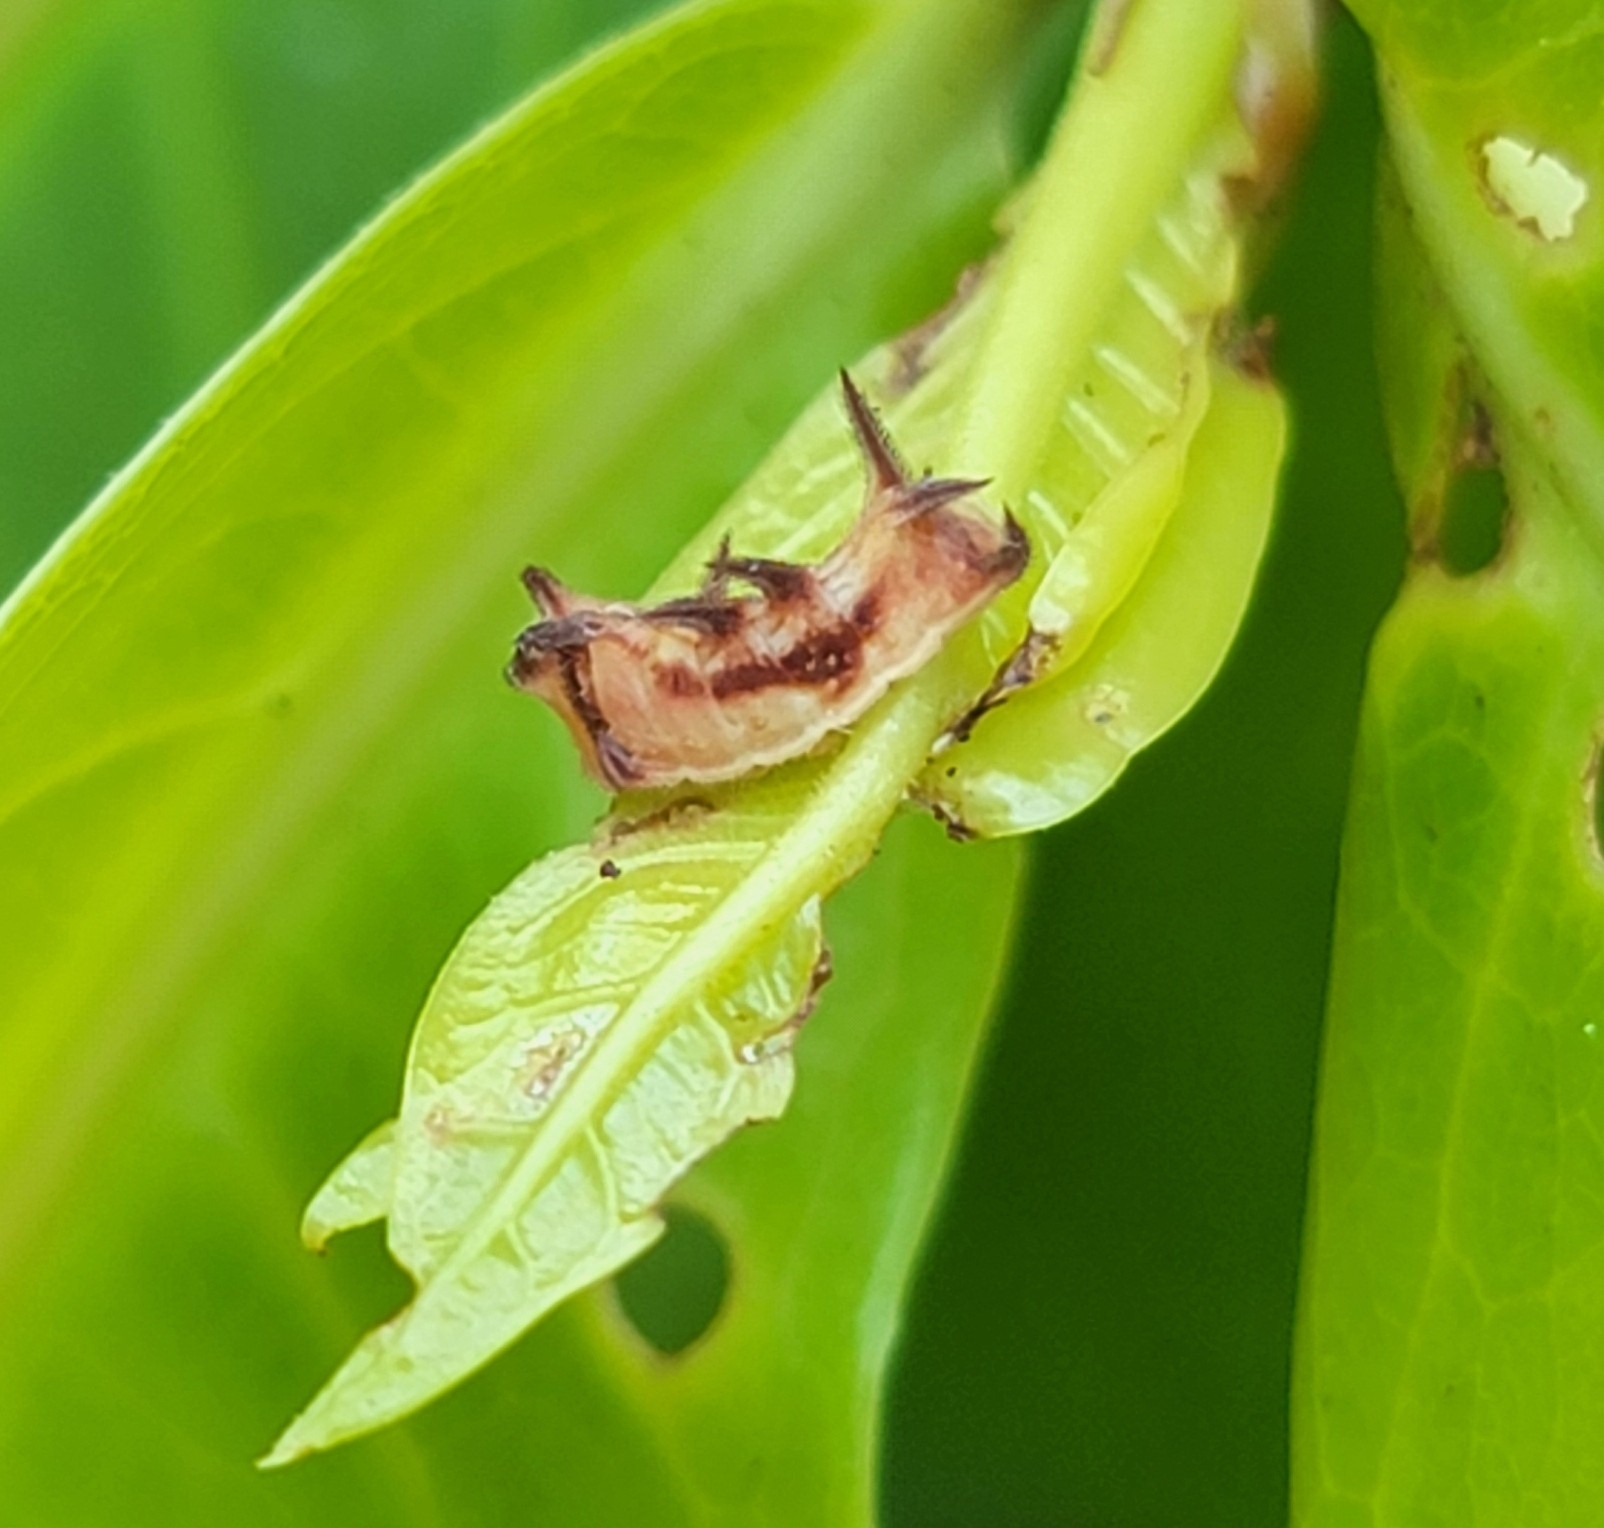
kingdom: Animalia
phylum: Arthropoda
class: Insecta
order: Lepidoptera
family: Lycaenidae
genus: Rathinda
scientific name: Rathinda amor
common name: Monkey puzzle
